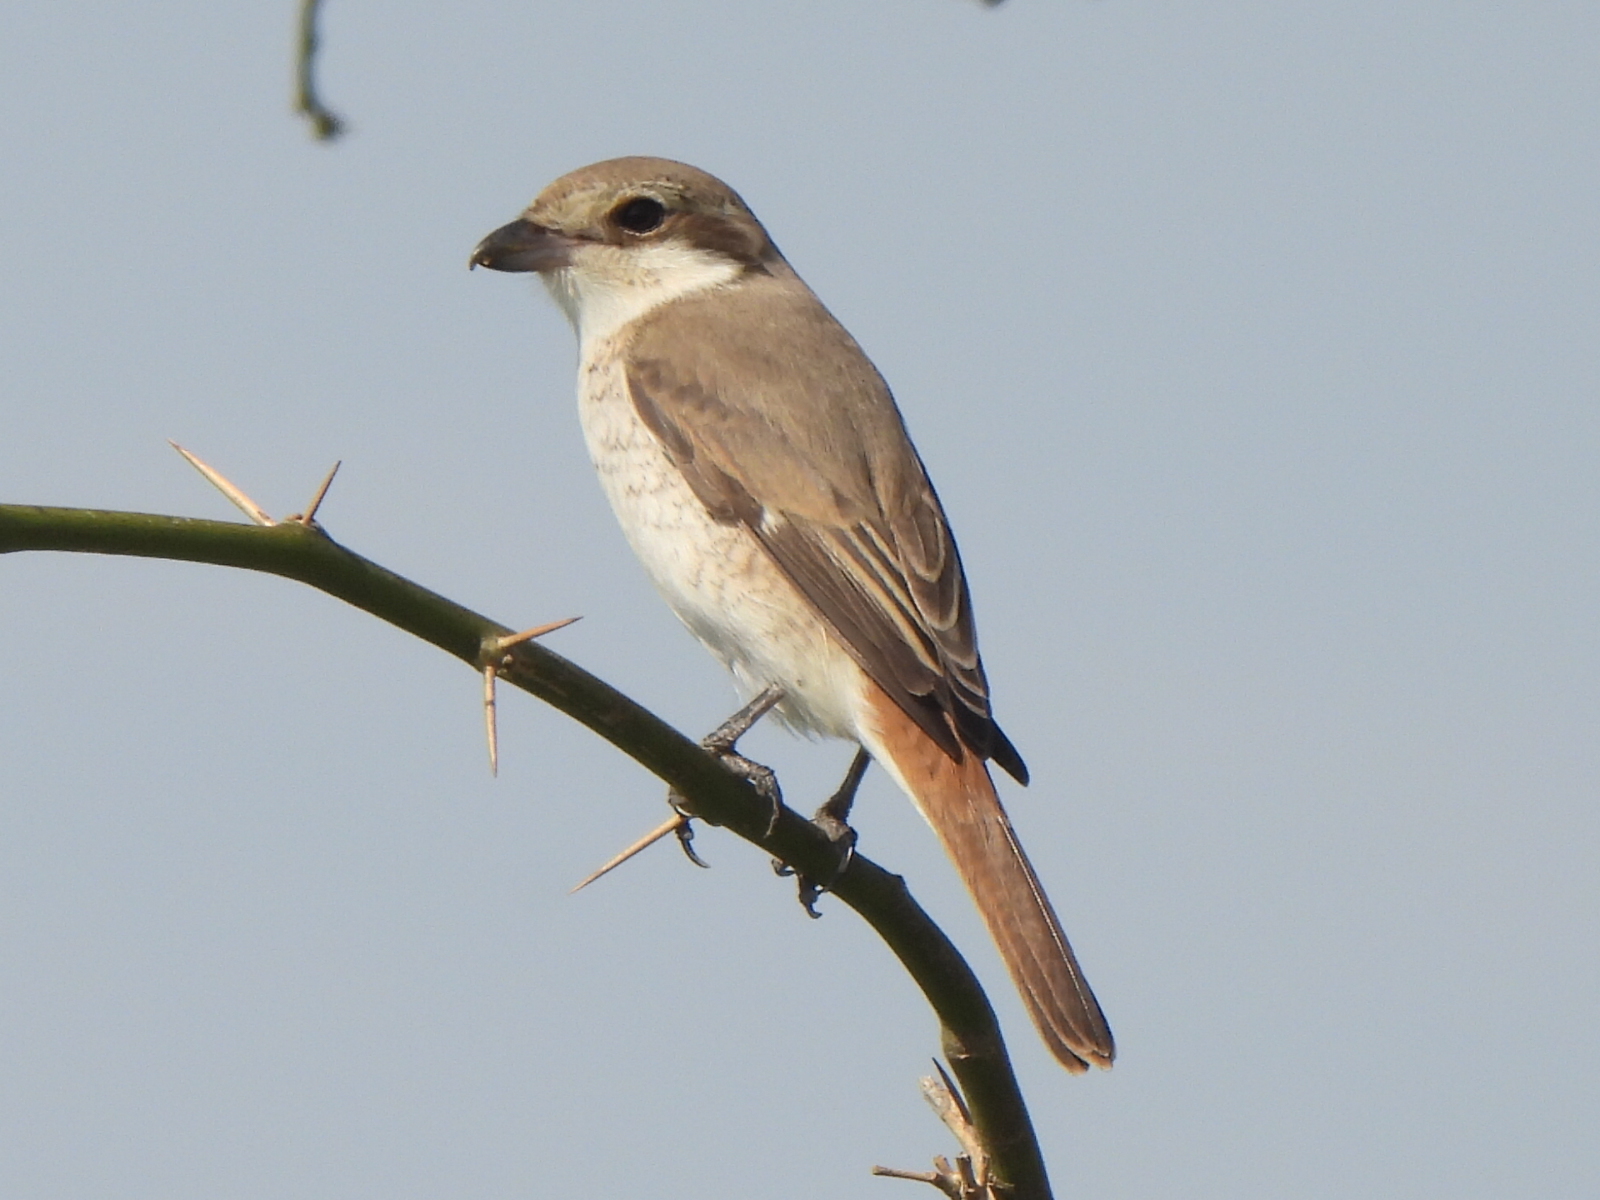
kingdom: Animalia
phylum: Chordata
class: Aves
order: Passeriformes
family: Laniidae
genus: Lanius
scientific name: Lanius phoenicuroides
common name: Red-tailed shrike
